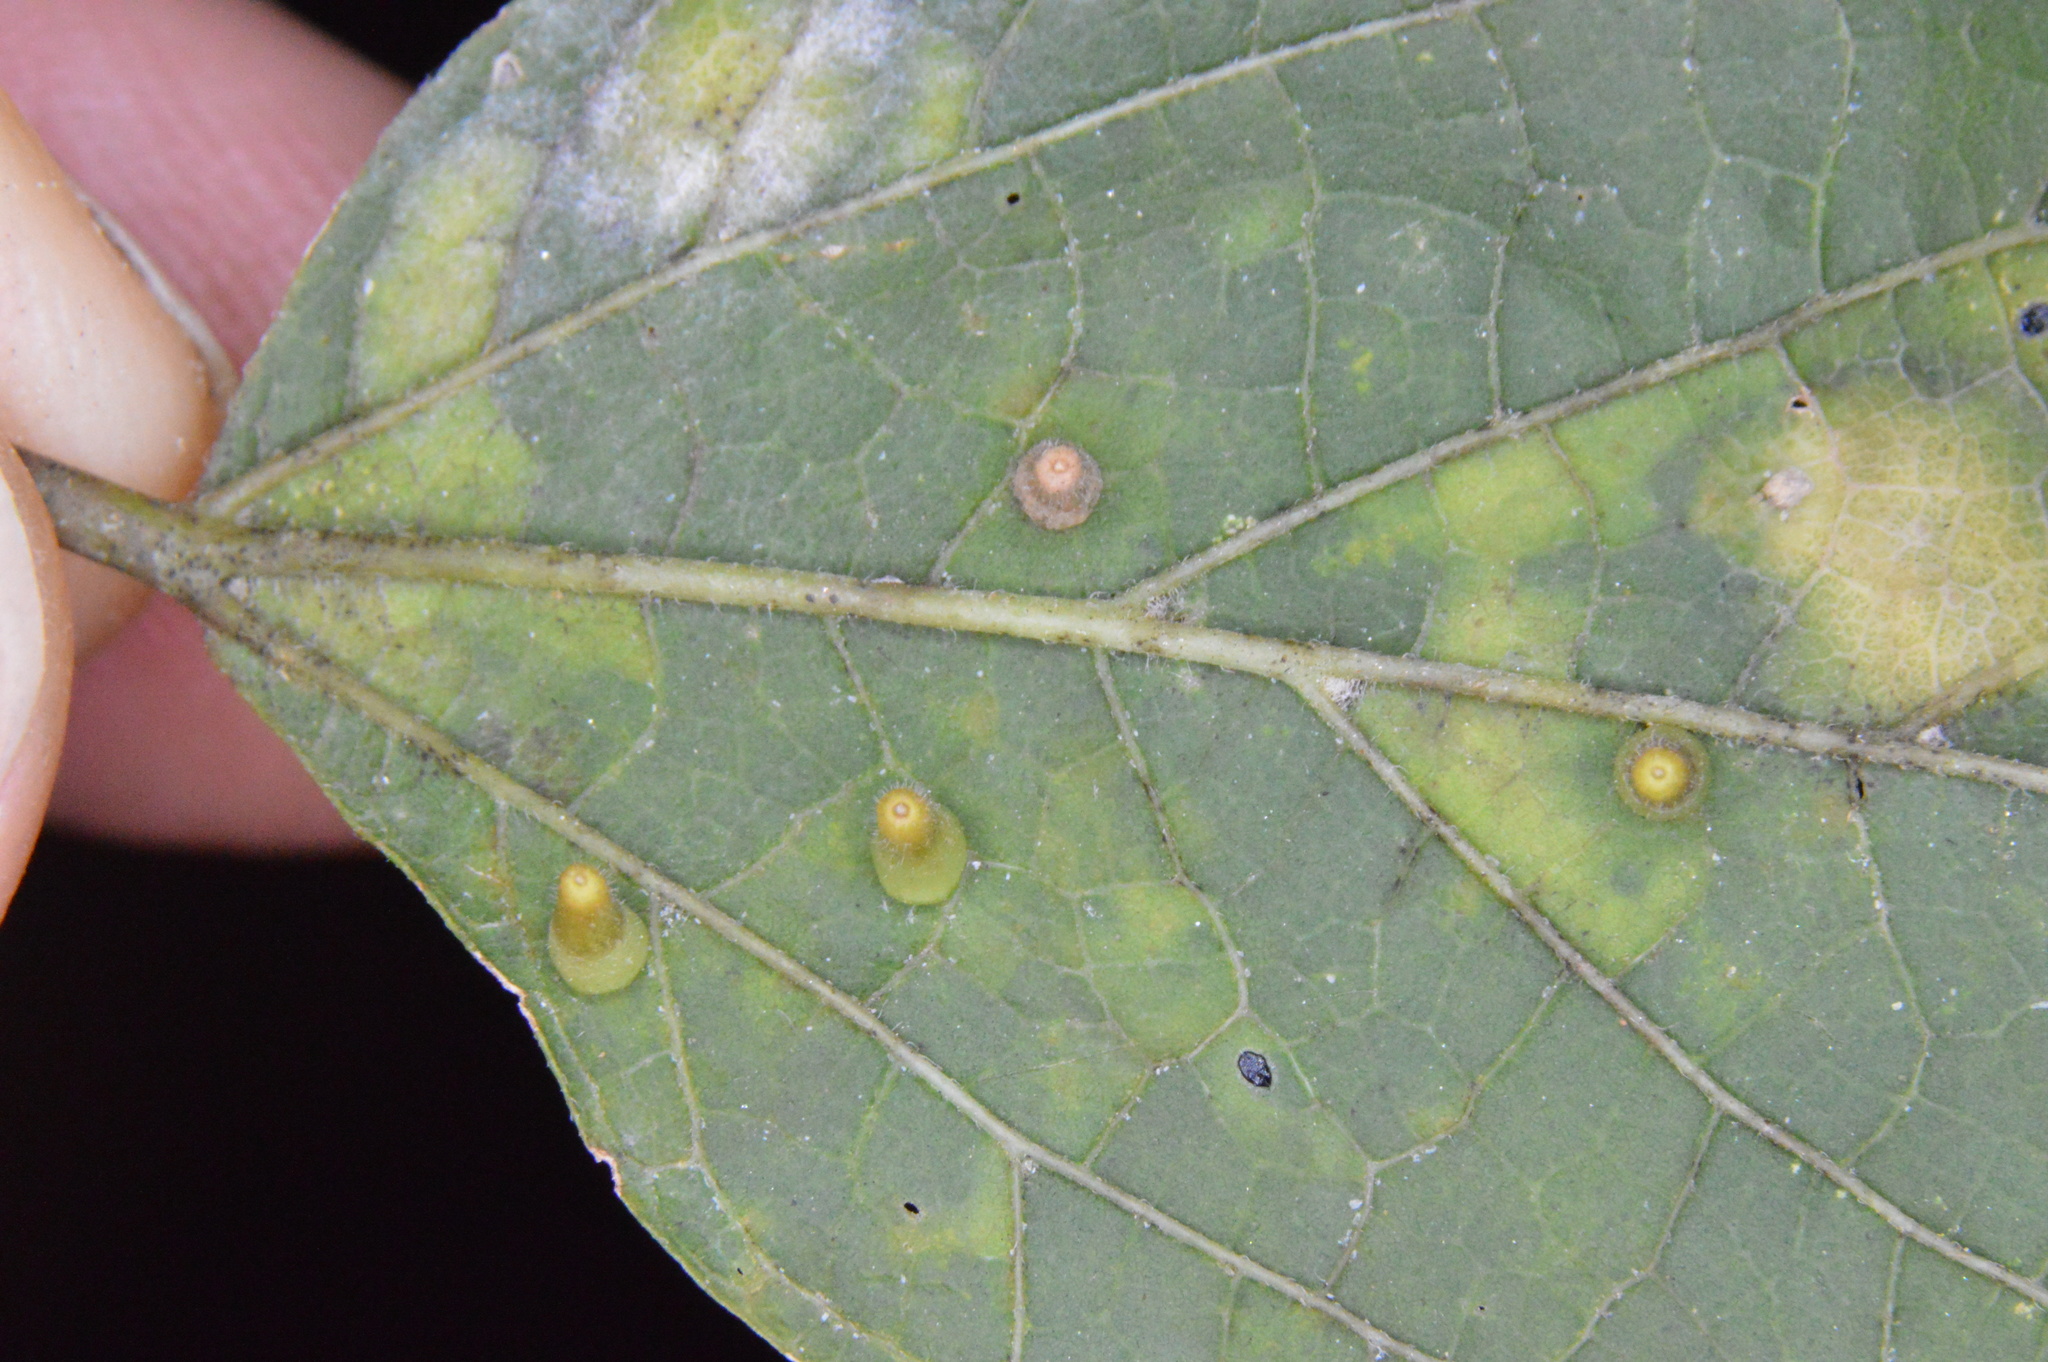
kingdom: Animalia
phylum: Arthropoda
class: Insecta
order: Diptera
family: Cecidomyiidae
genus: Celticecis
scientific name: Celticecis aciculata
